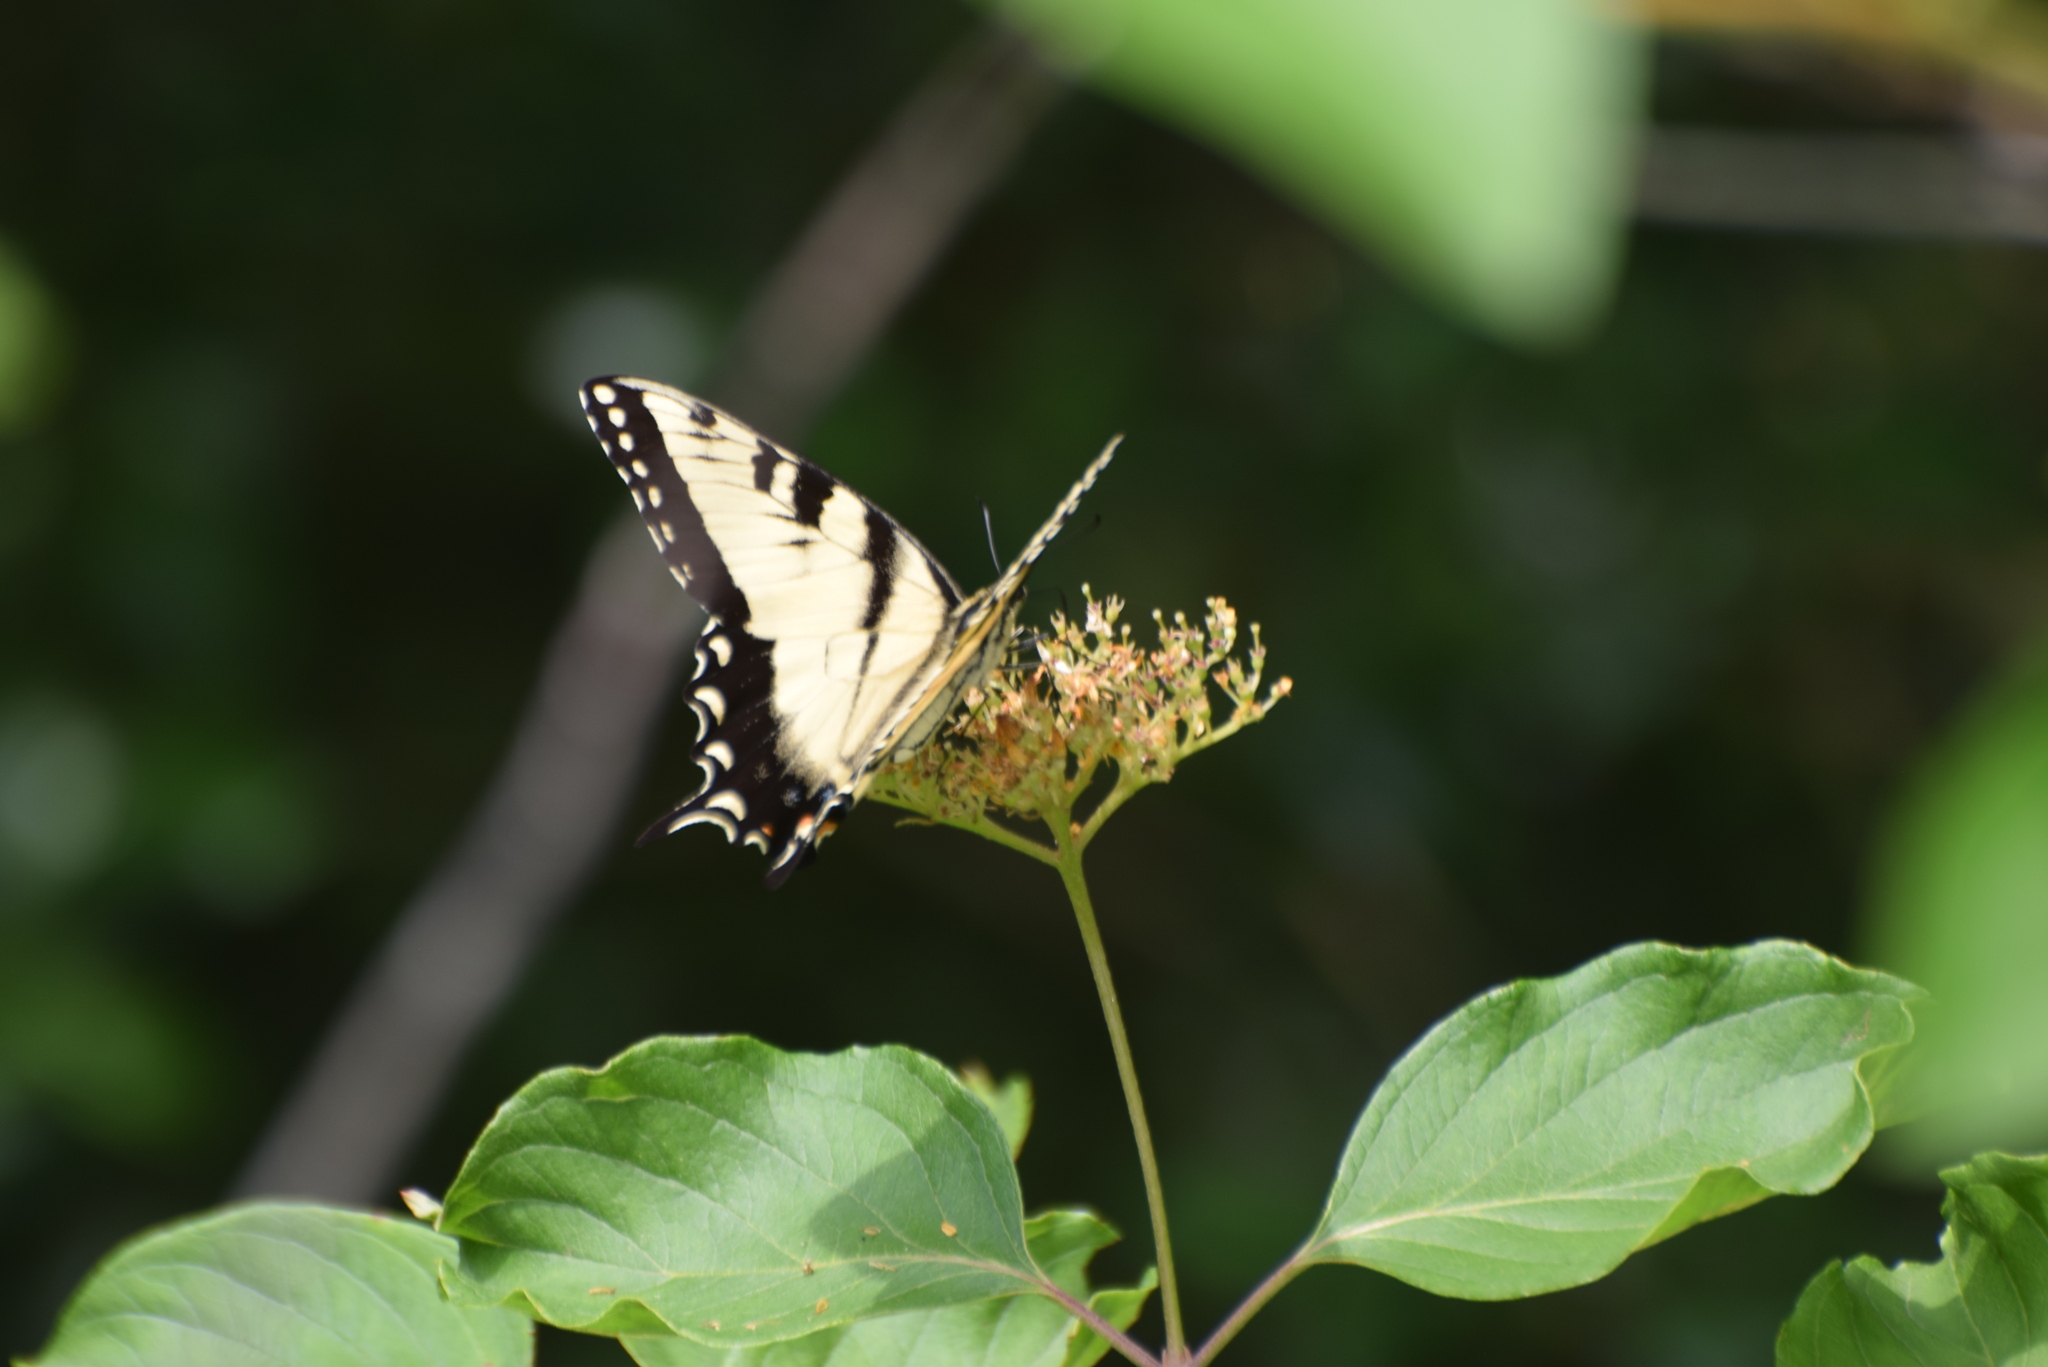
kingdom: Animalia
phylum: Arthropoda
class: Insecta
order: Lepidoptera
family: Papilionidae
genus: Papilio
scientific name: Papilio glaucus
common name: Tiger swallowtail
